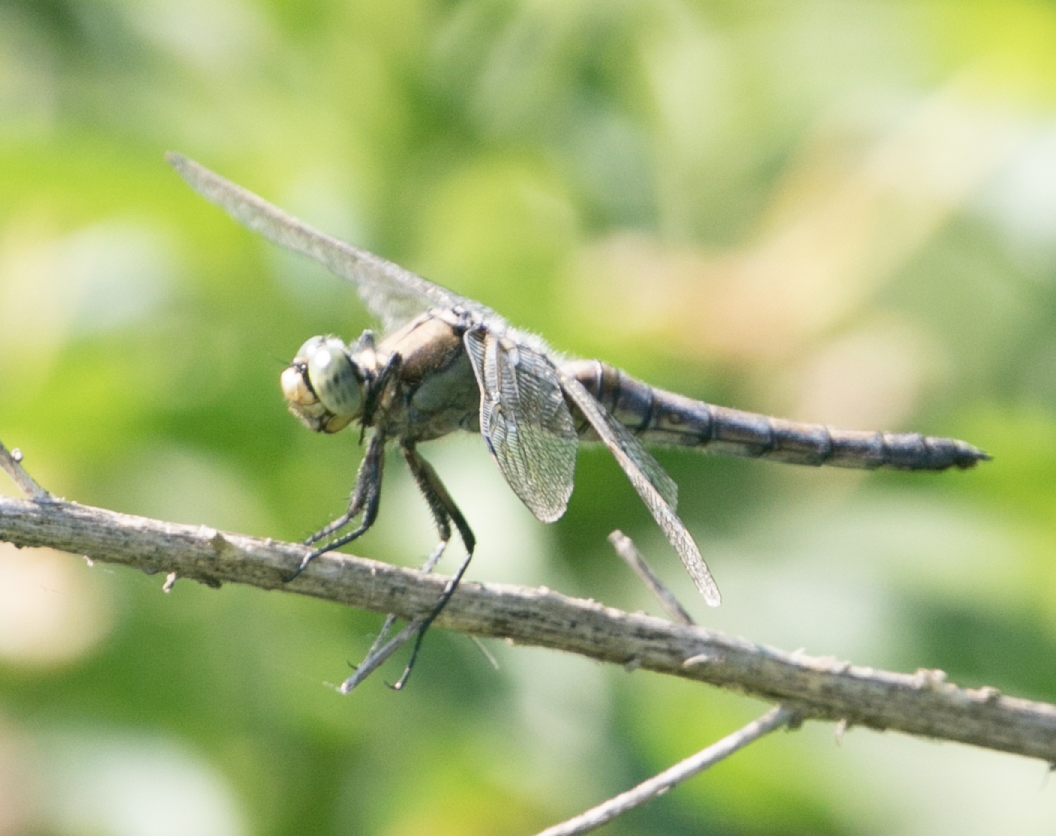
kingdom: Animalia
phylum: Arthropoda
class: Insecta
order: Odonata
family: Libellulidae
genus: Orthetrum
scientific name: Orthetrum cancellatum
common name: Black-tailed skimmer
